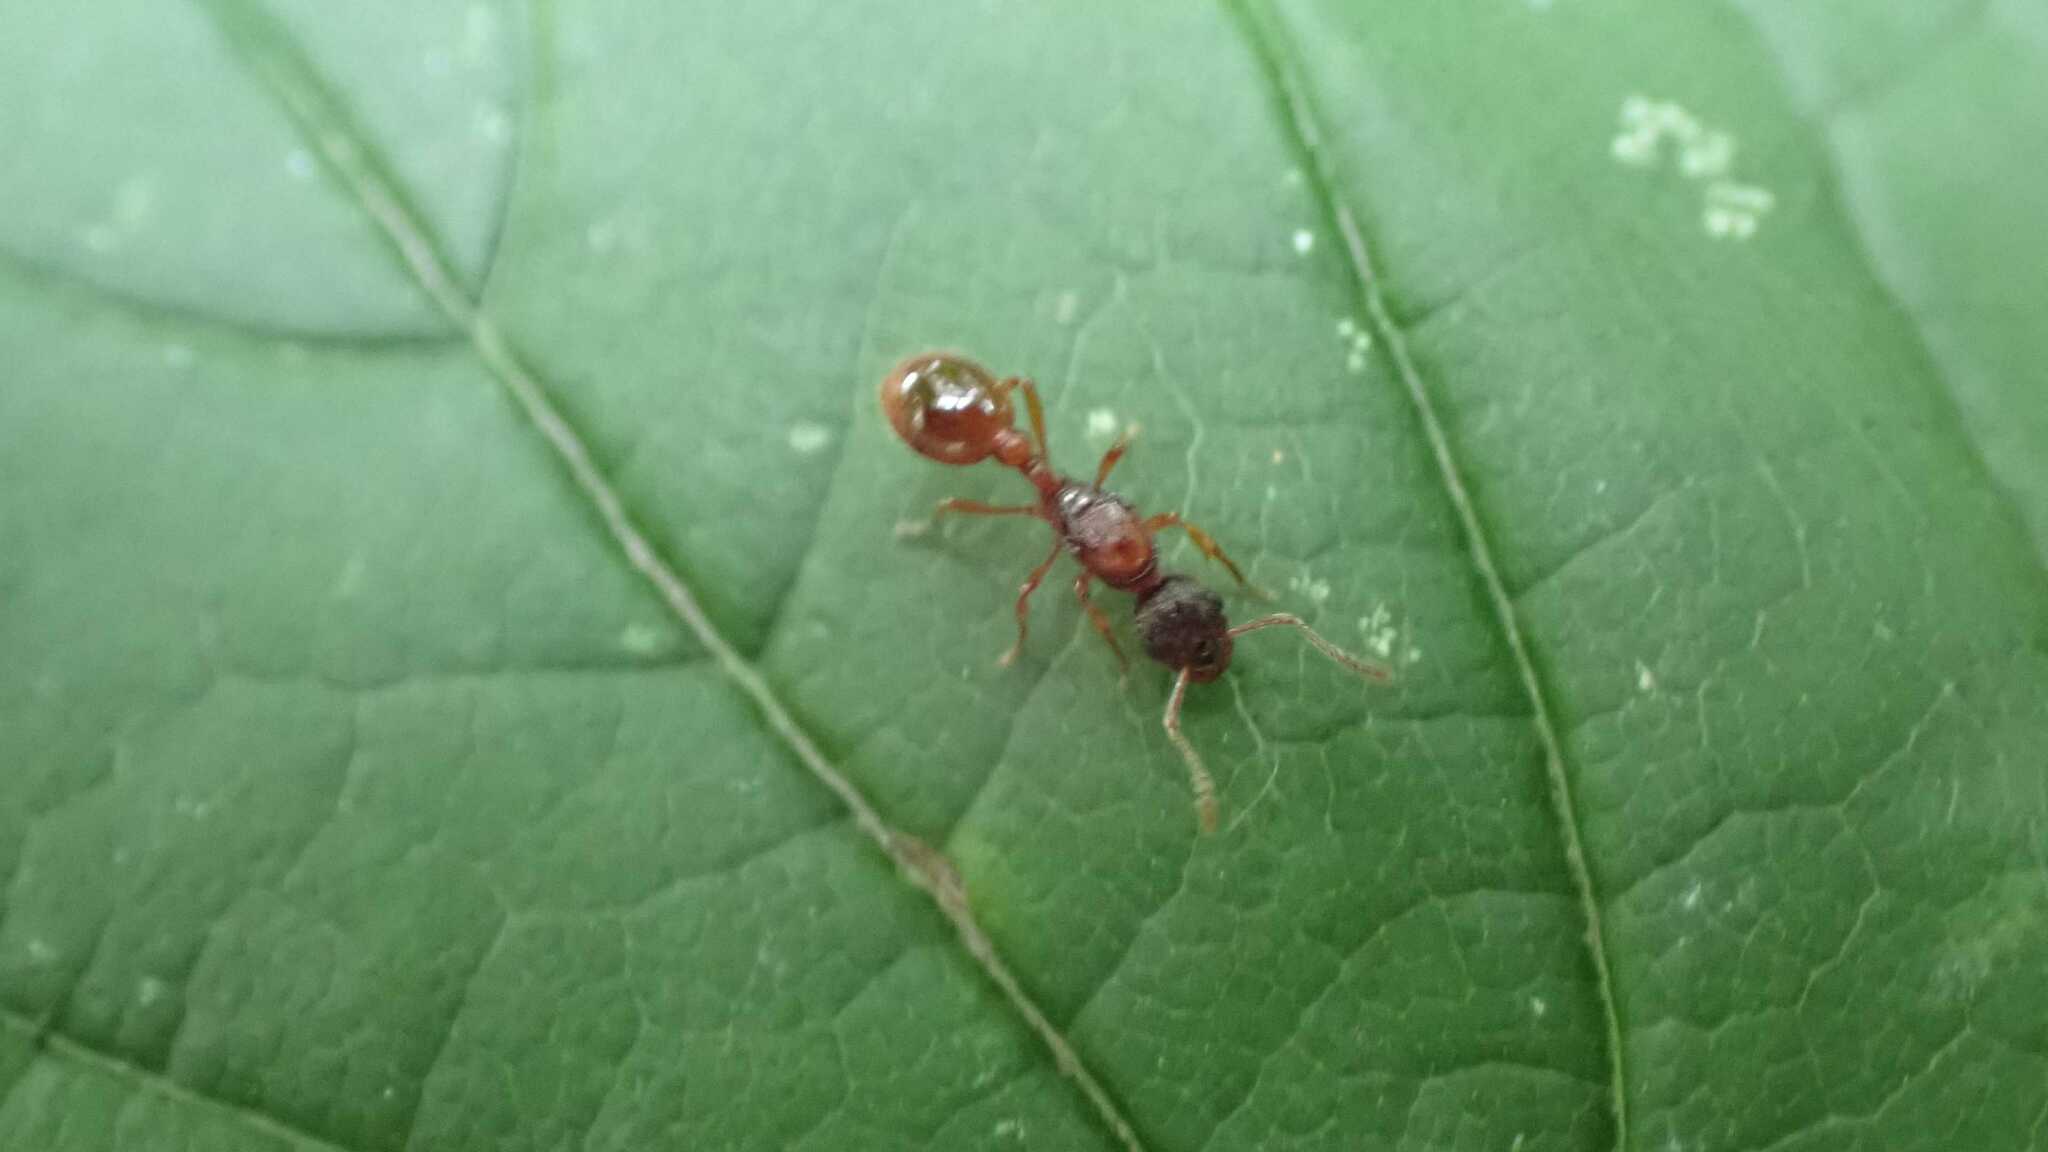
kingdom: Animalia
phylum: Arthropoda
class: Insecta
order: Hymenoptera
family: Formicidae
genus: Myrmica
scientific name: Myrmica
